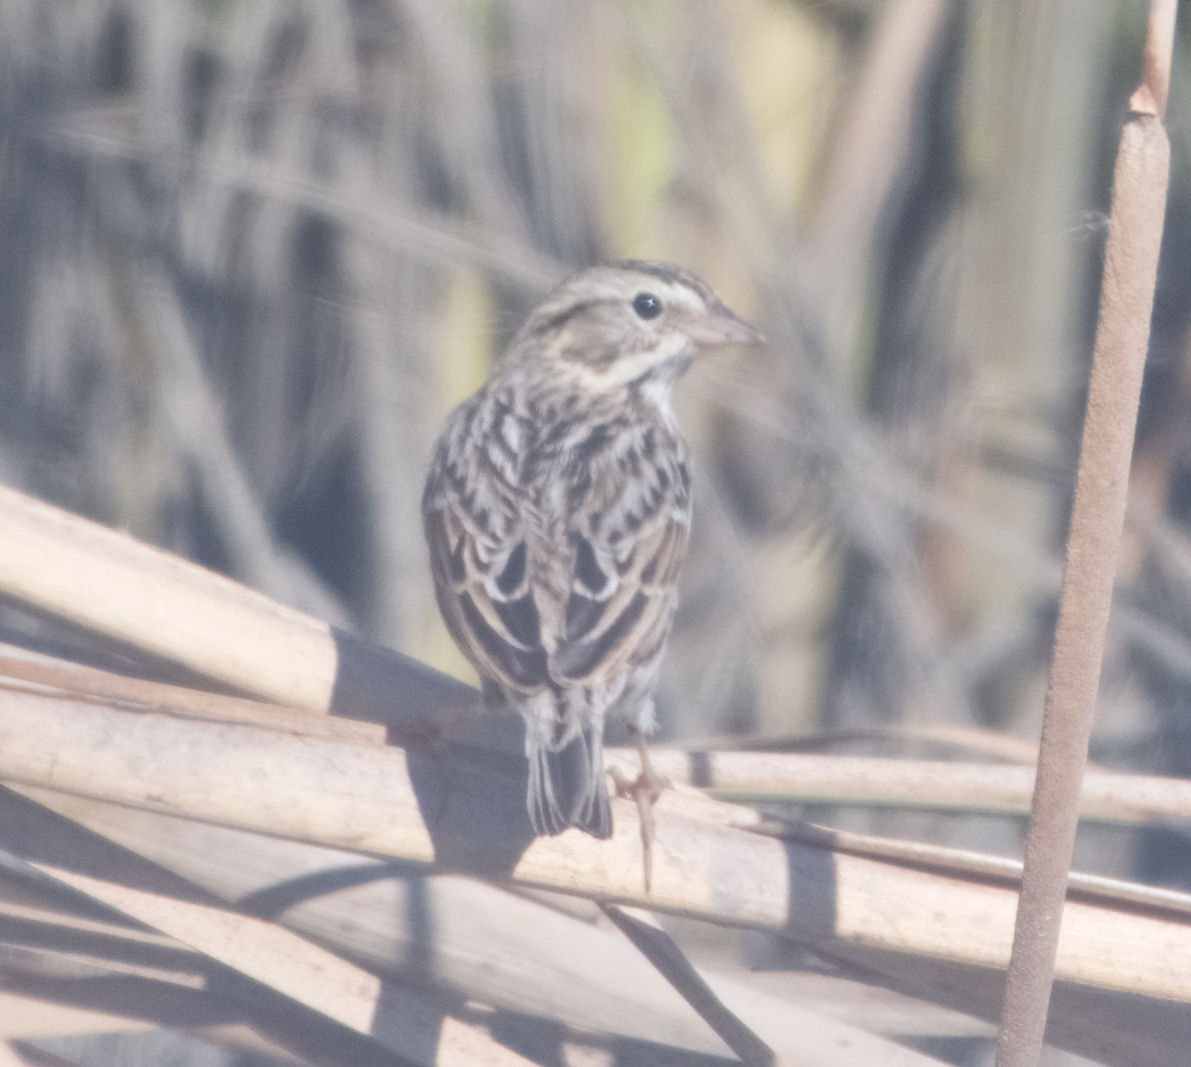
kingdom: Animalia
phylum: Chordata
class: Aves
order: Passeriformes
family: Passerellidae
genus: Passerculus
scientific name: Passerculus sandwichensis
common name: Savannah sparrow
